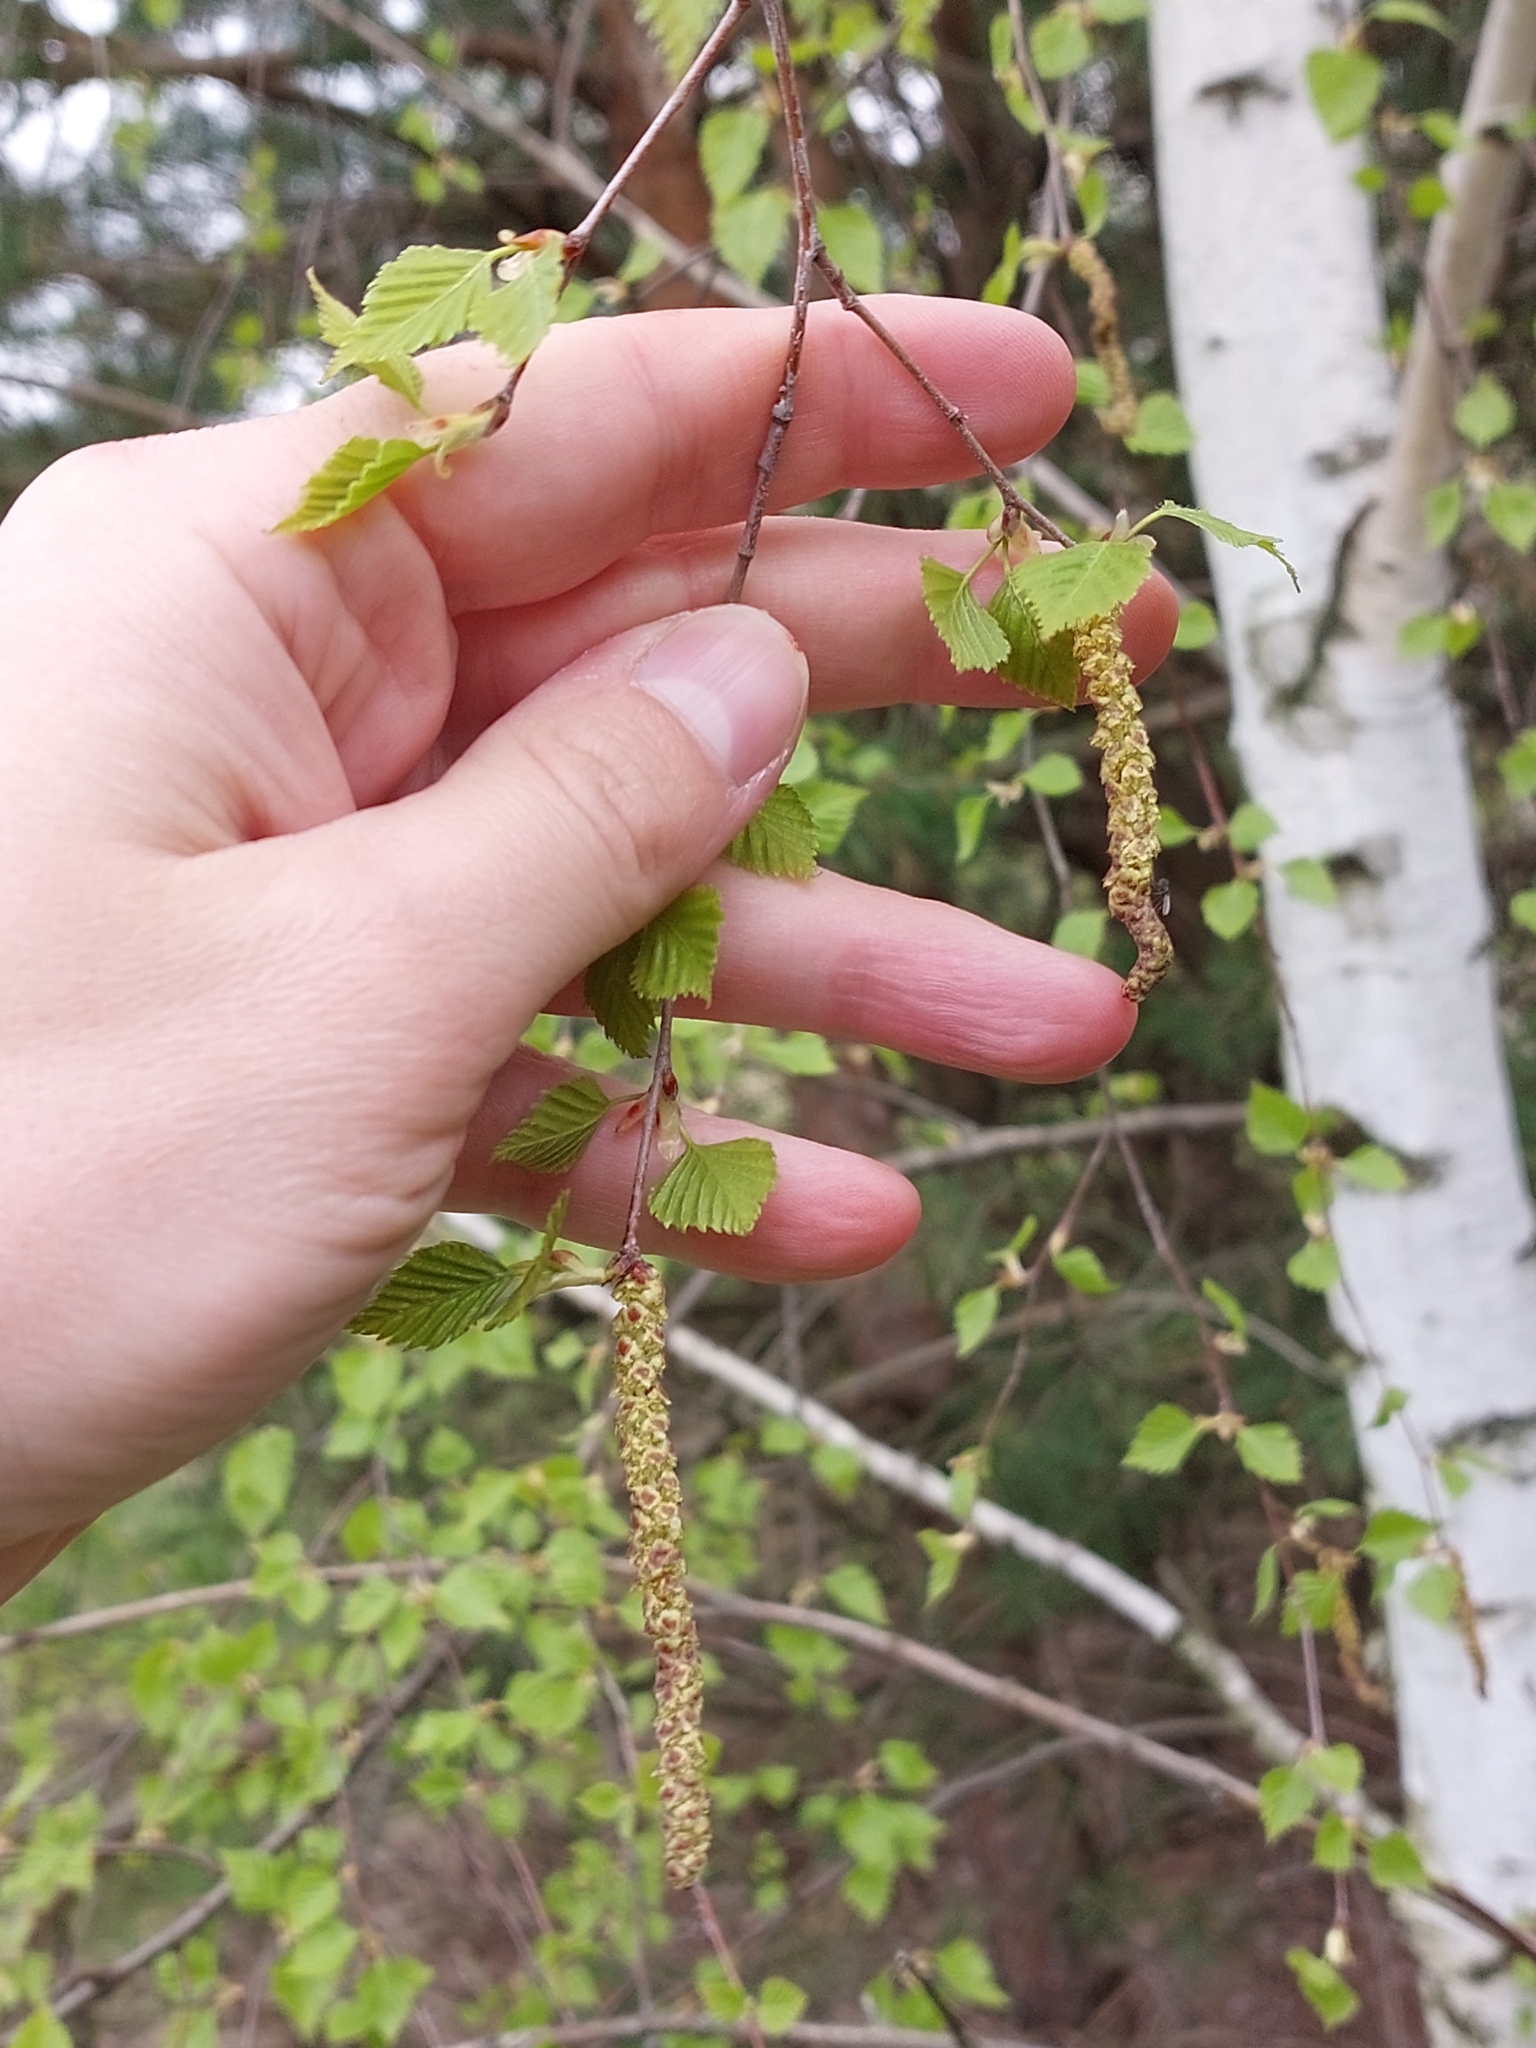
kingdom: Plantae
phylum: Tracheophyta
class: Magnoliopsida
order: Fagales
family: Betulaceae
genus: Betula
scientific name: Betula pendula
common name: Silver birch
